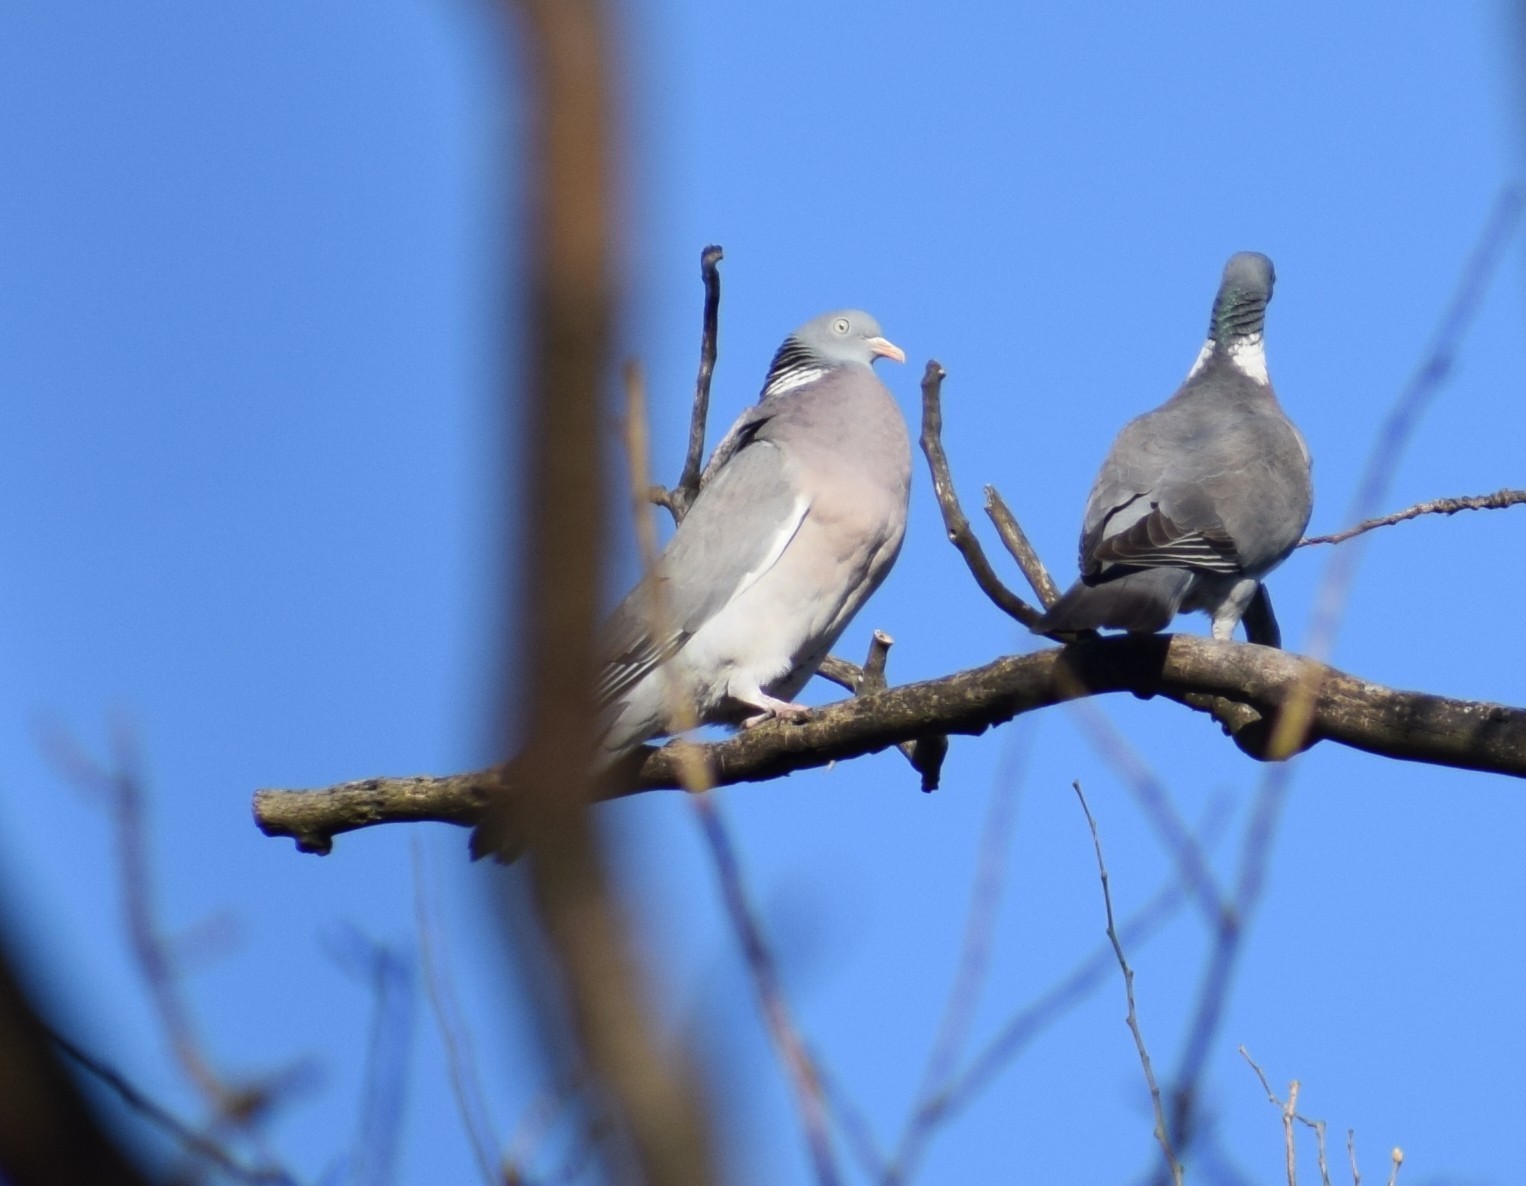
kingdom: Animalia
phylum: Chordata
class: Aves
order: Columbiformes
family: Columbidae
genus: Columba
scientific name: Columba palumbus
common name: Common wood pigeon
